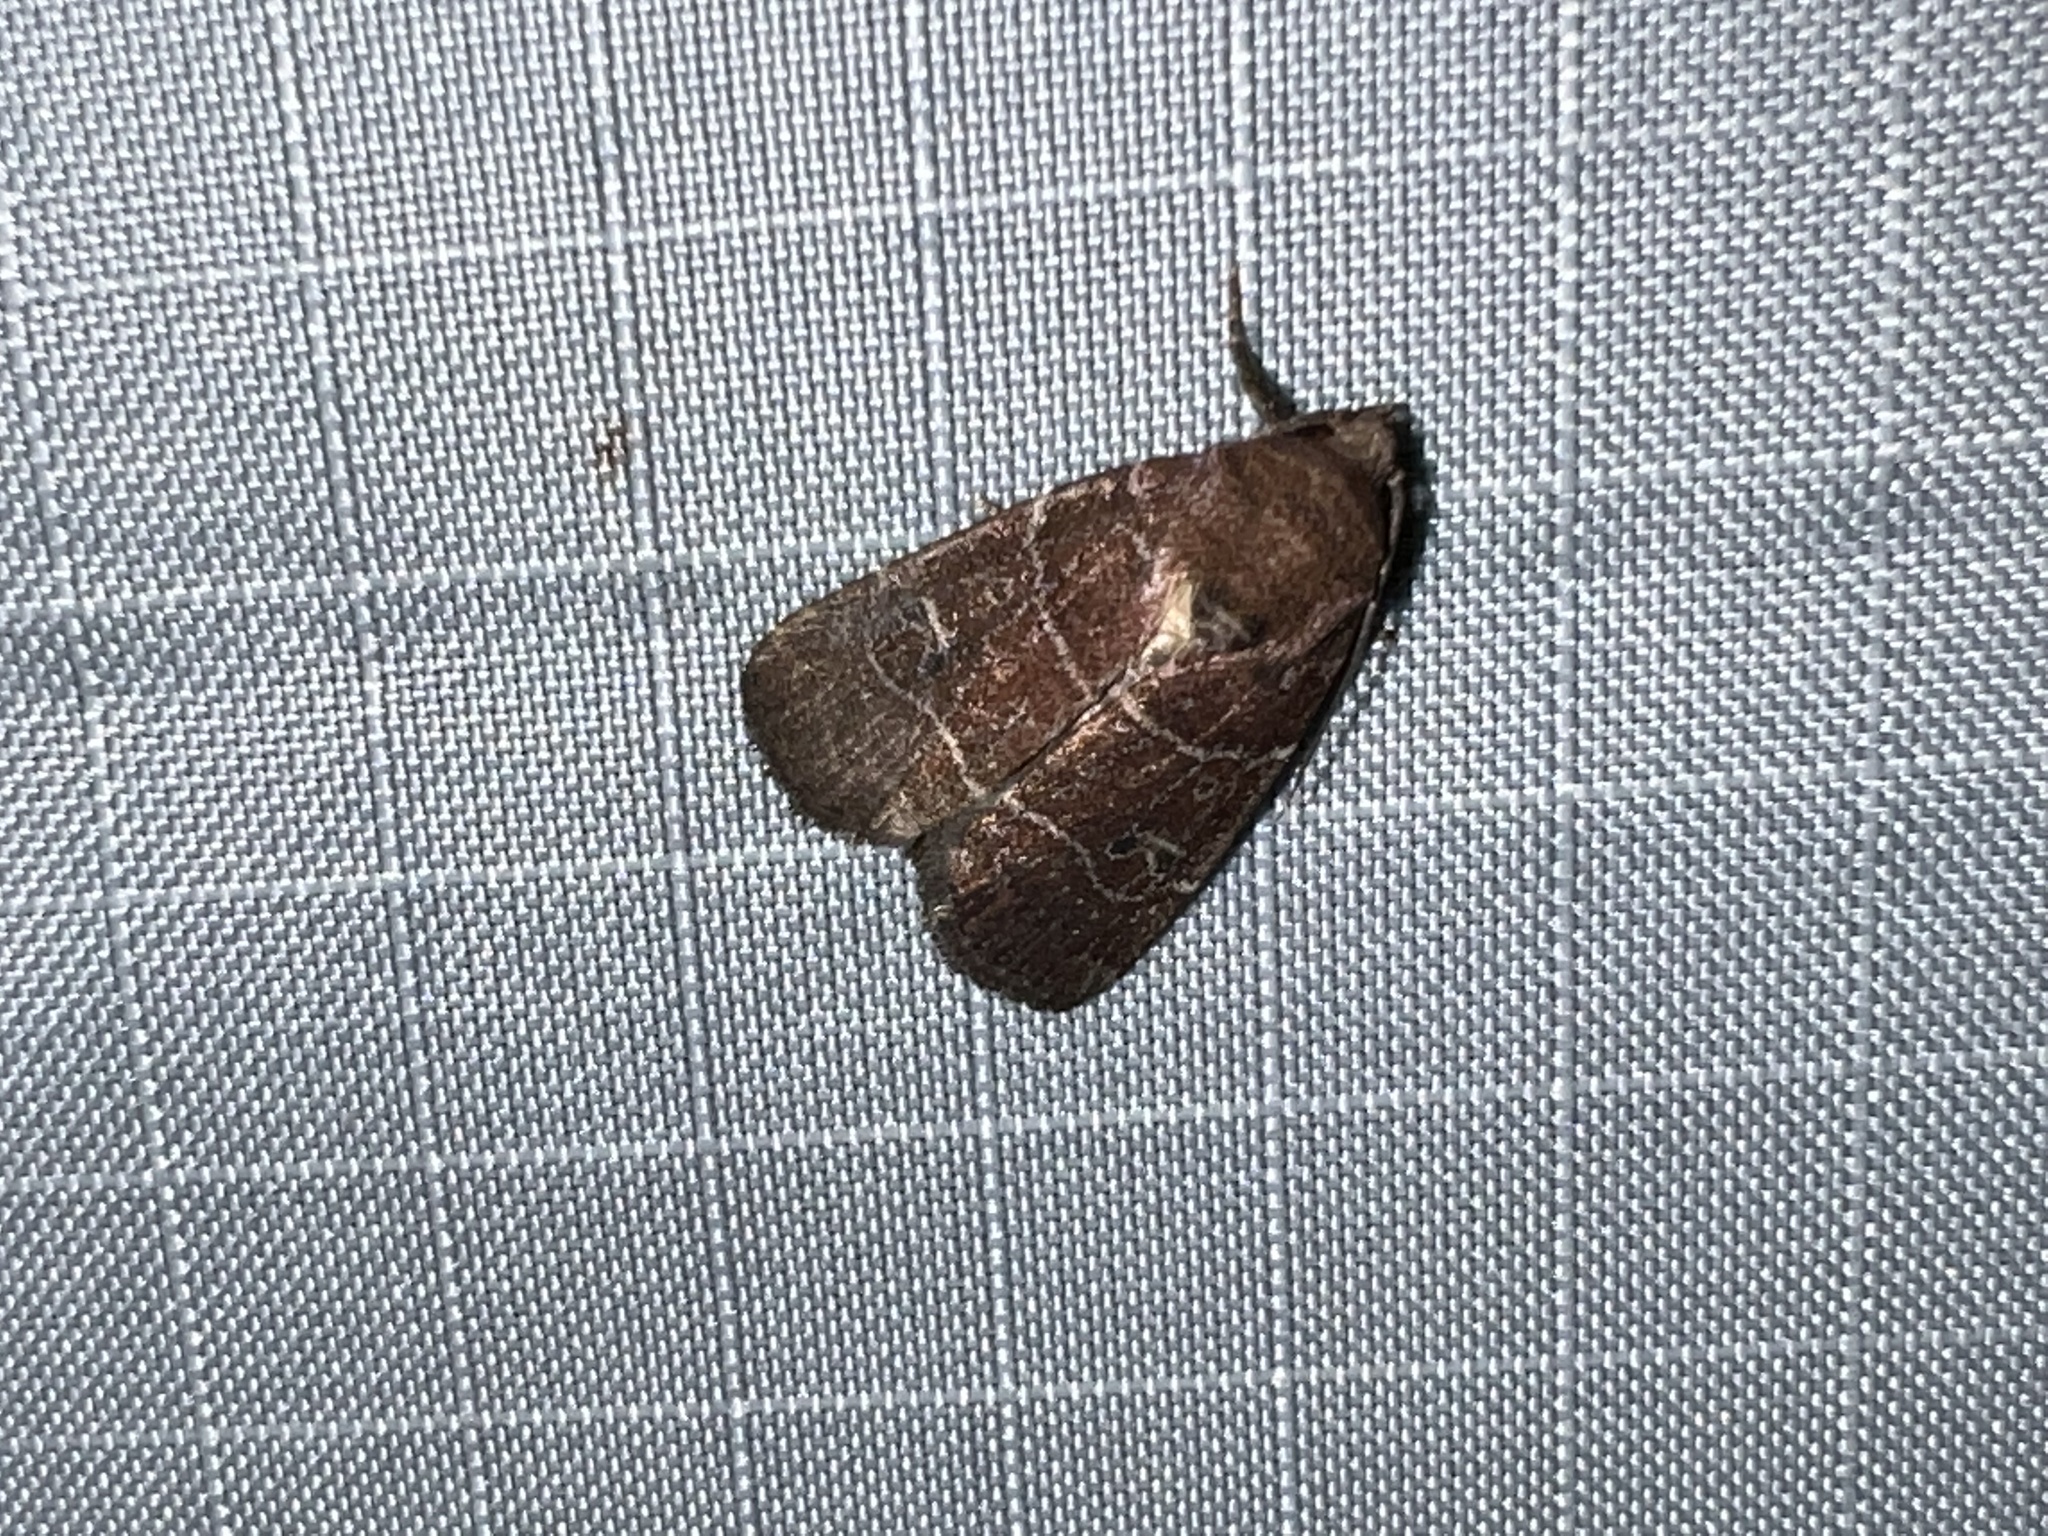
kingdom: Animalia
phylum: Arthropoda
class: Insecta
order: Lepidoptera
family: Noctuidae
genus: Elaphria
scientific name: Elaphria grata
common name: Grateful midget moth
